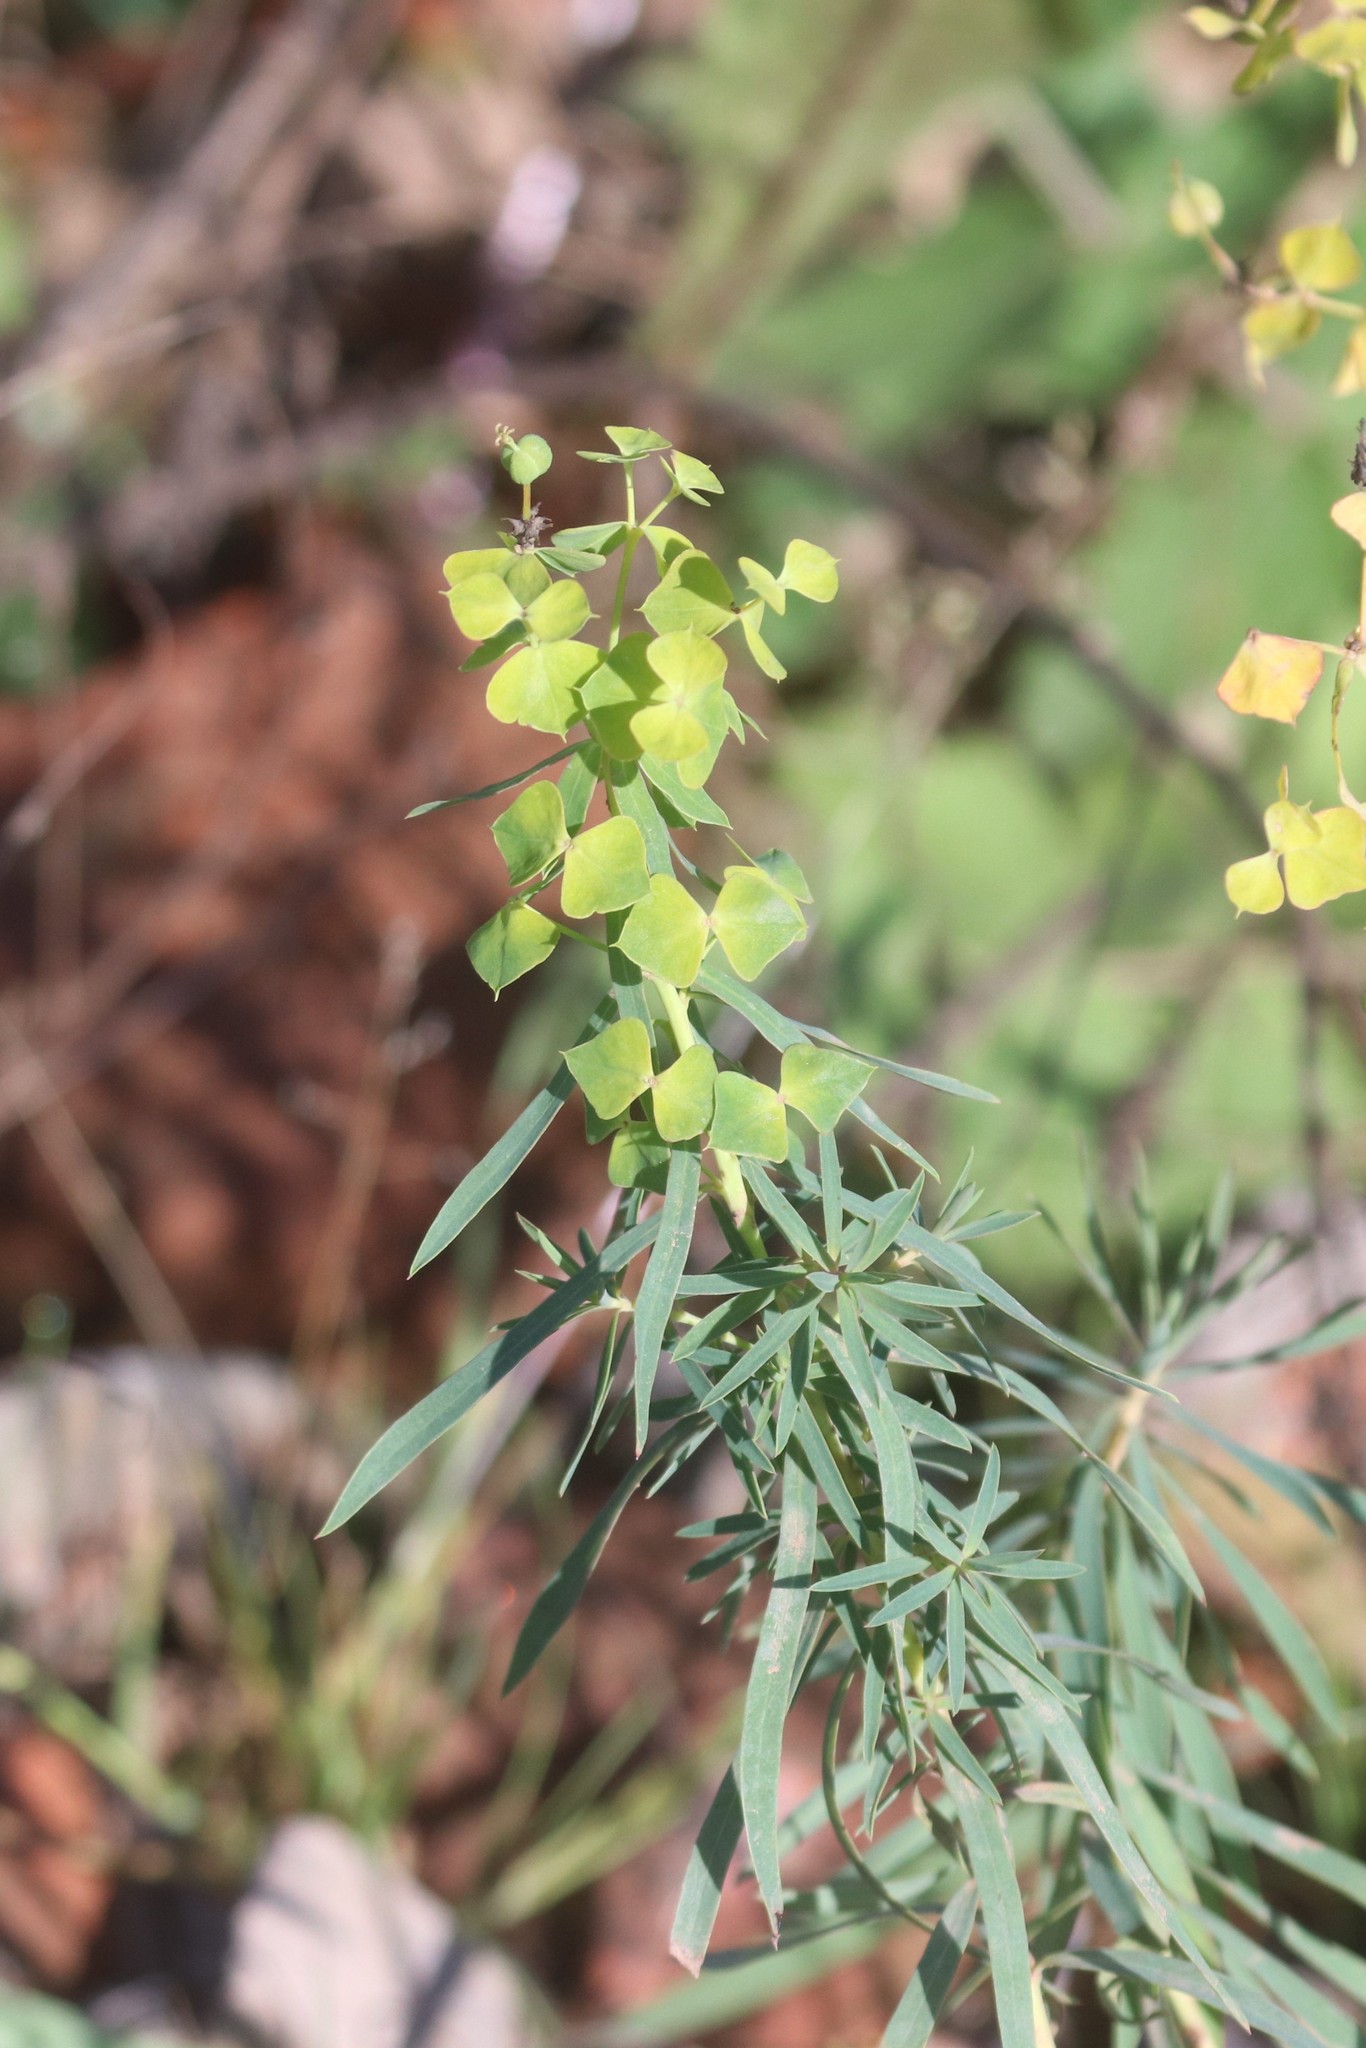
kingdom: Plantae
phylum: Tracheophyta
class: Magnoliopsida
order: Malpighiales
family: Euphorbiaceae
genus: Euphorbia
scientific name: Euphorbia virgata
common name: Leafy spurge
